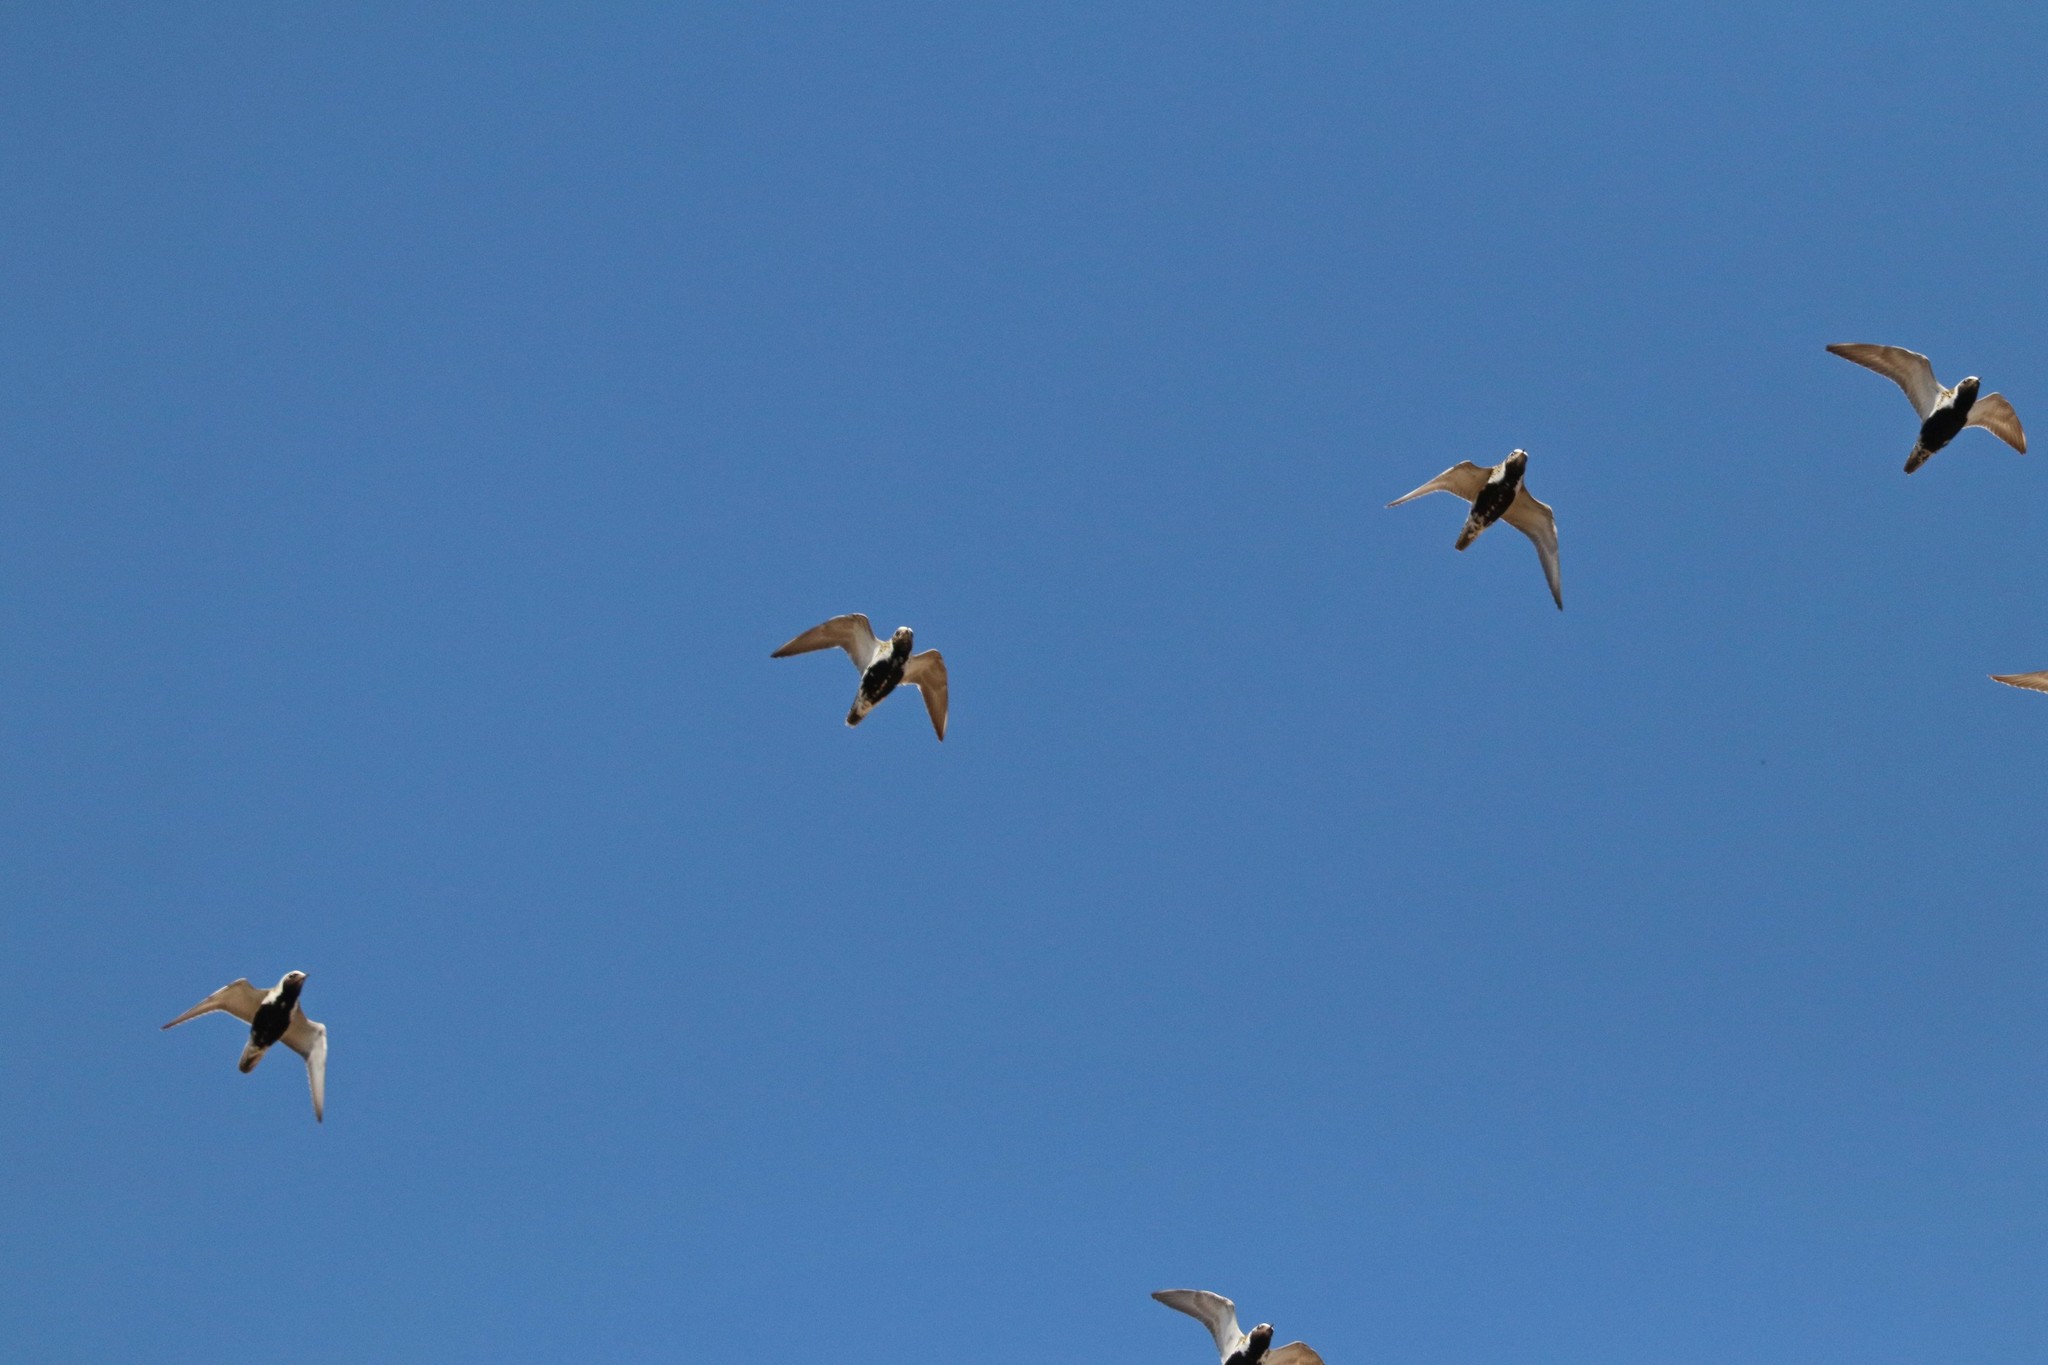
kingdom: Animalia
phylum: Chordata
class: Aves
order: Charadriiformes
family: Charadriidae
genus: Pluvialis
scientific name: Pluvialis apricaria
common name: European golden plover
